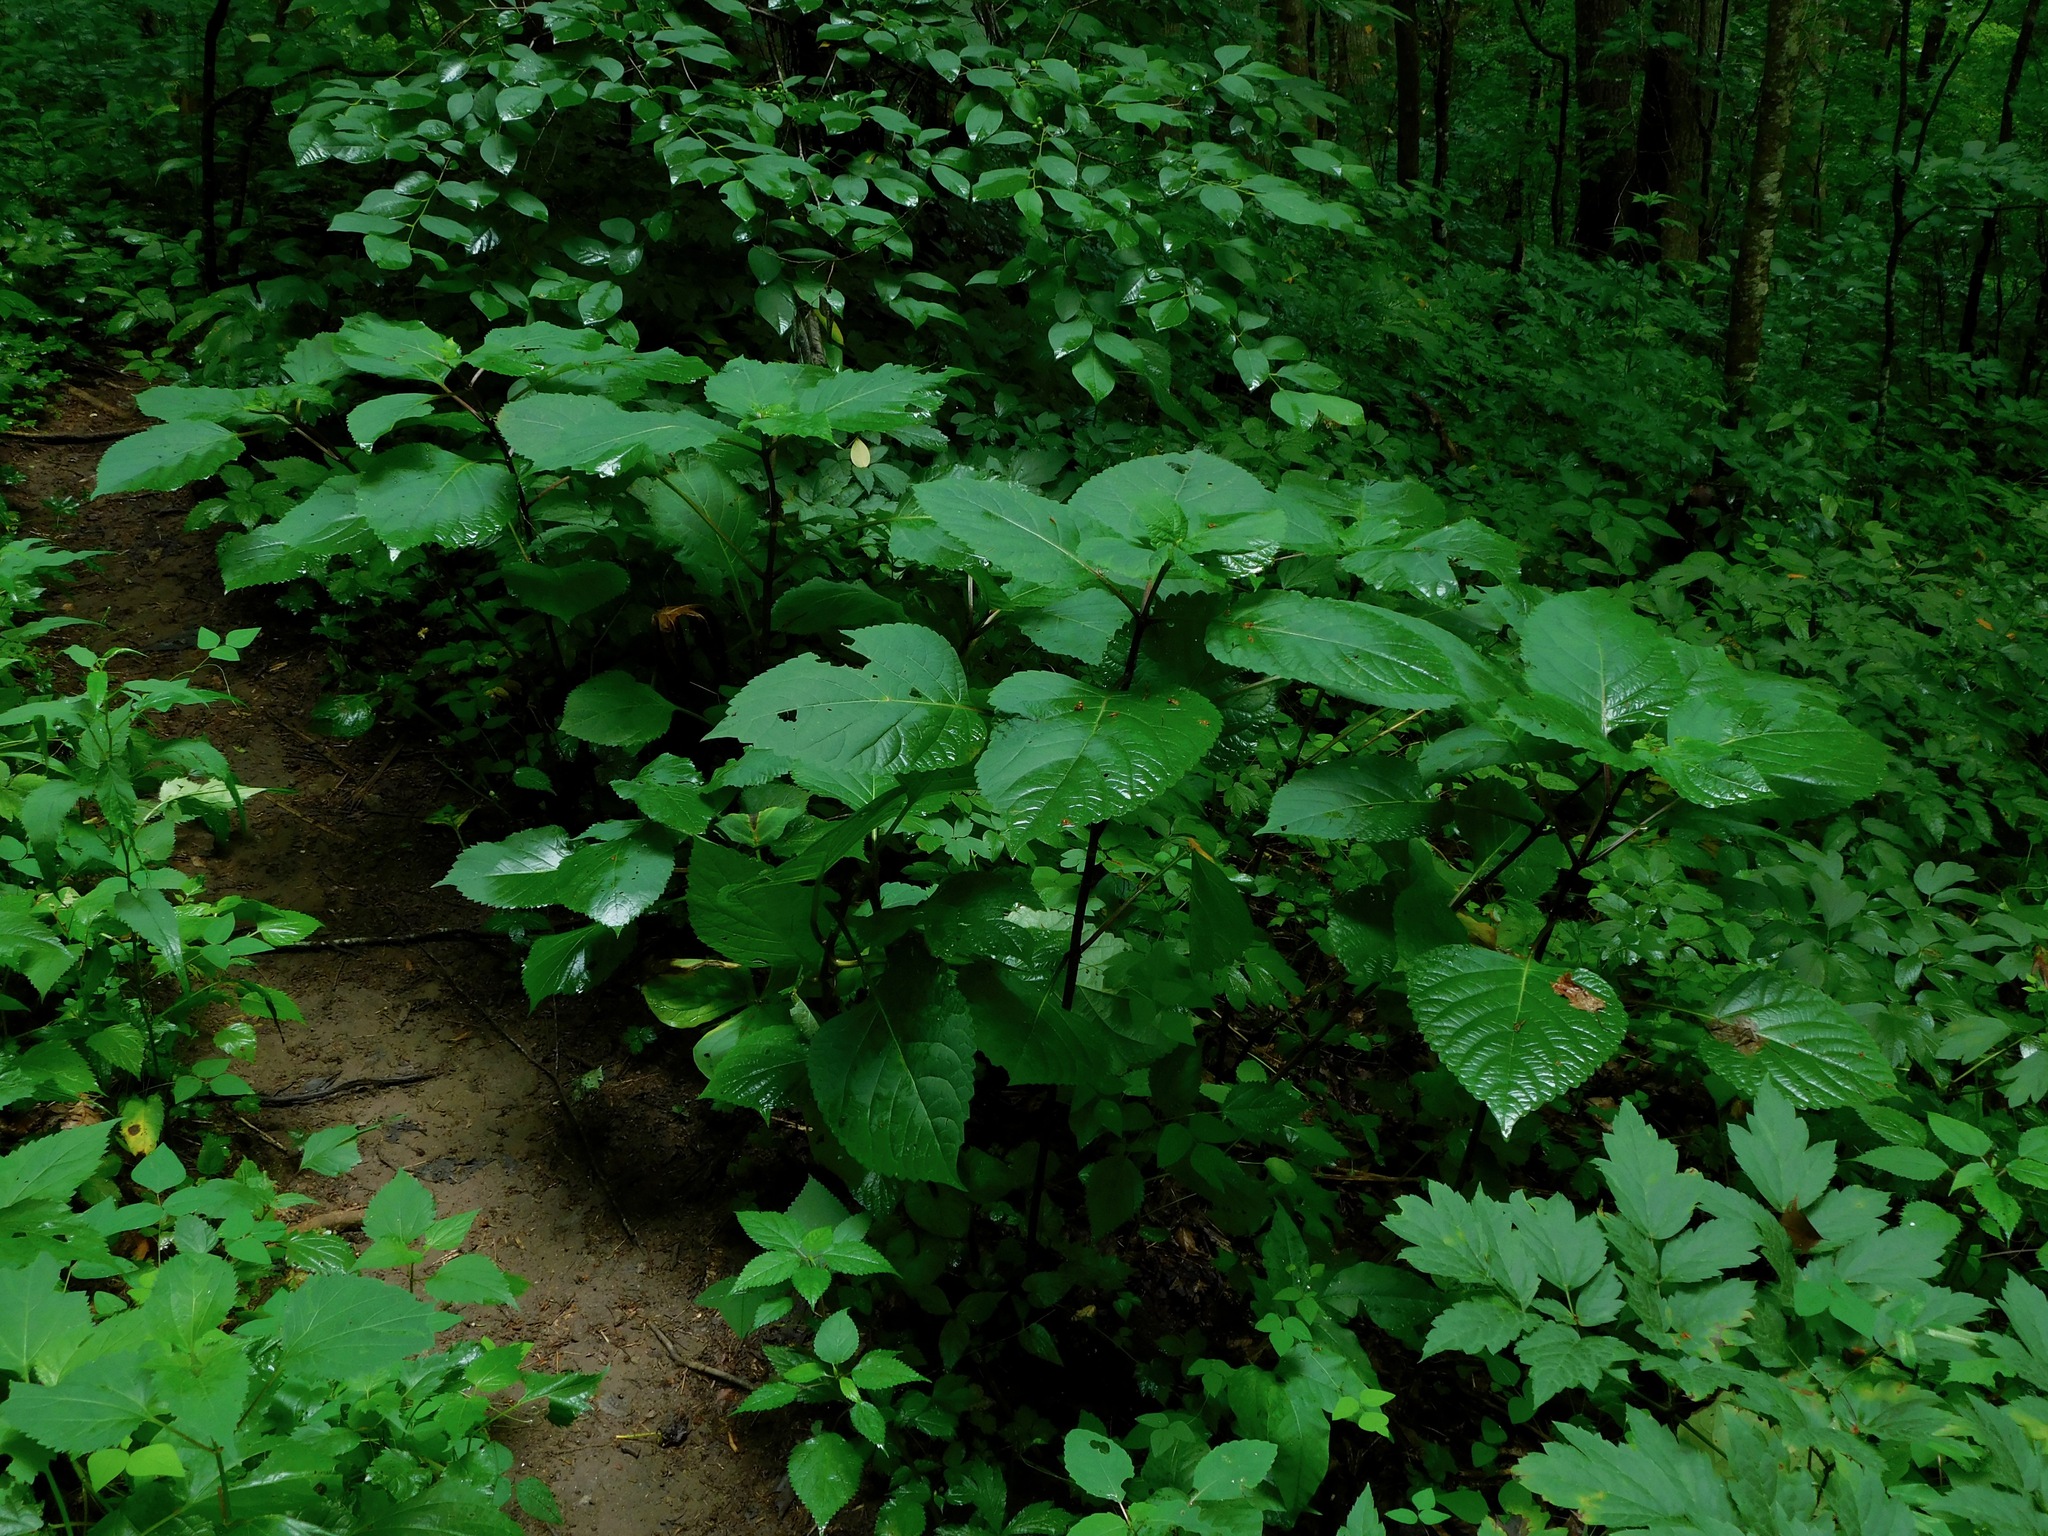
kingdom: Plantae
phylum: Tracheophyta
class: Magnoliopsida
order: Lamiales
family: Lamiaceae
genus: Collinsonia
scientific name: Collinsonia canadensis
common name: Northern horsebalm
